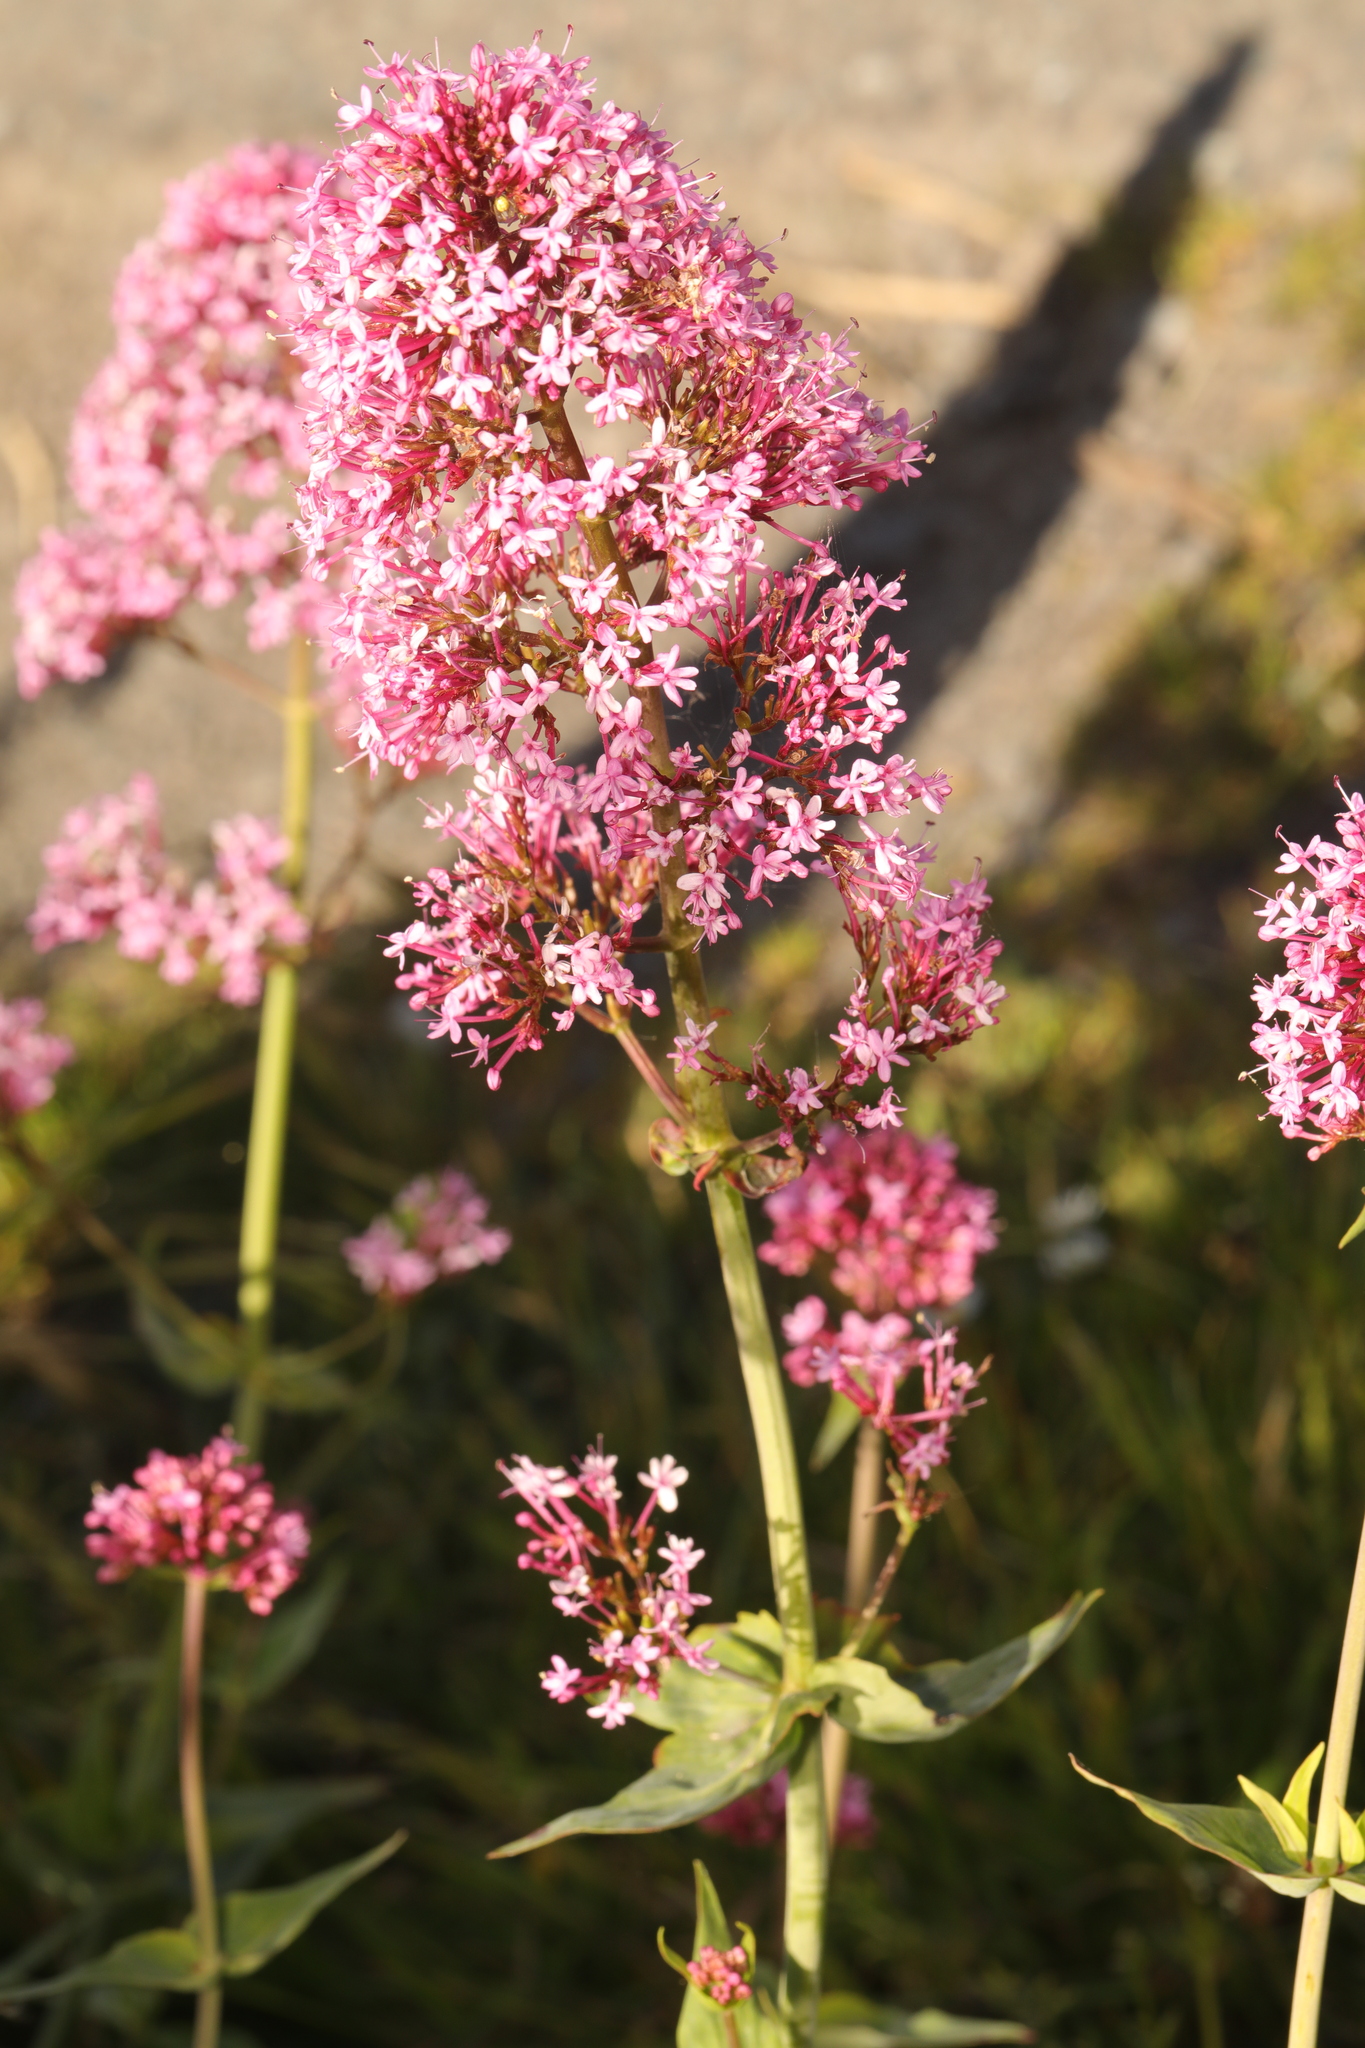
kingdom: Plantae
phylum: Tracheophyta
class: Magnoliopsida
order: Dipsacales
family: Caprifoliaceae
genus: Centranthus
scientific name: Centranthus ruber
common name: Red valerian
